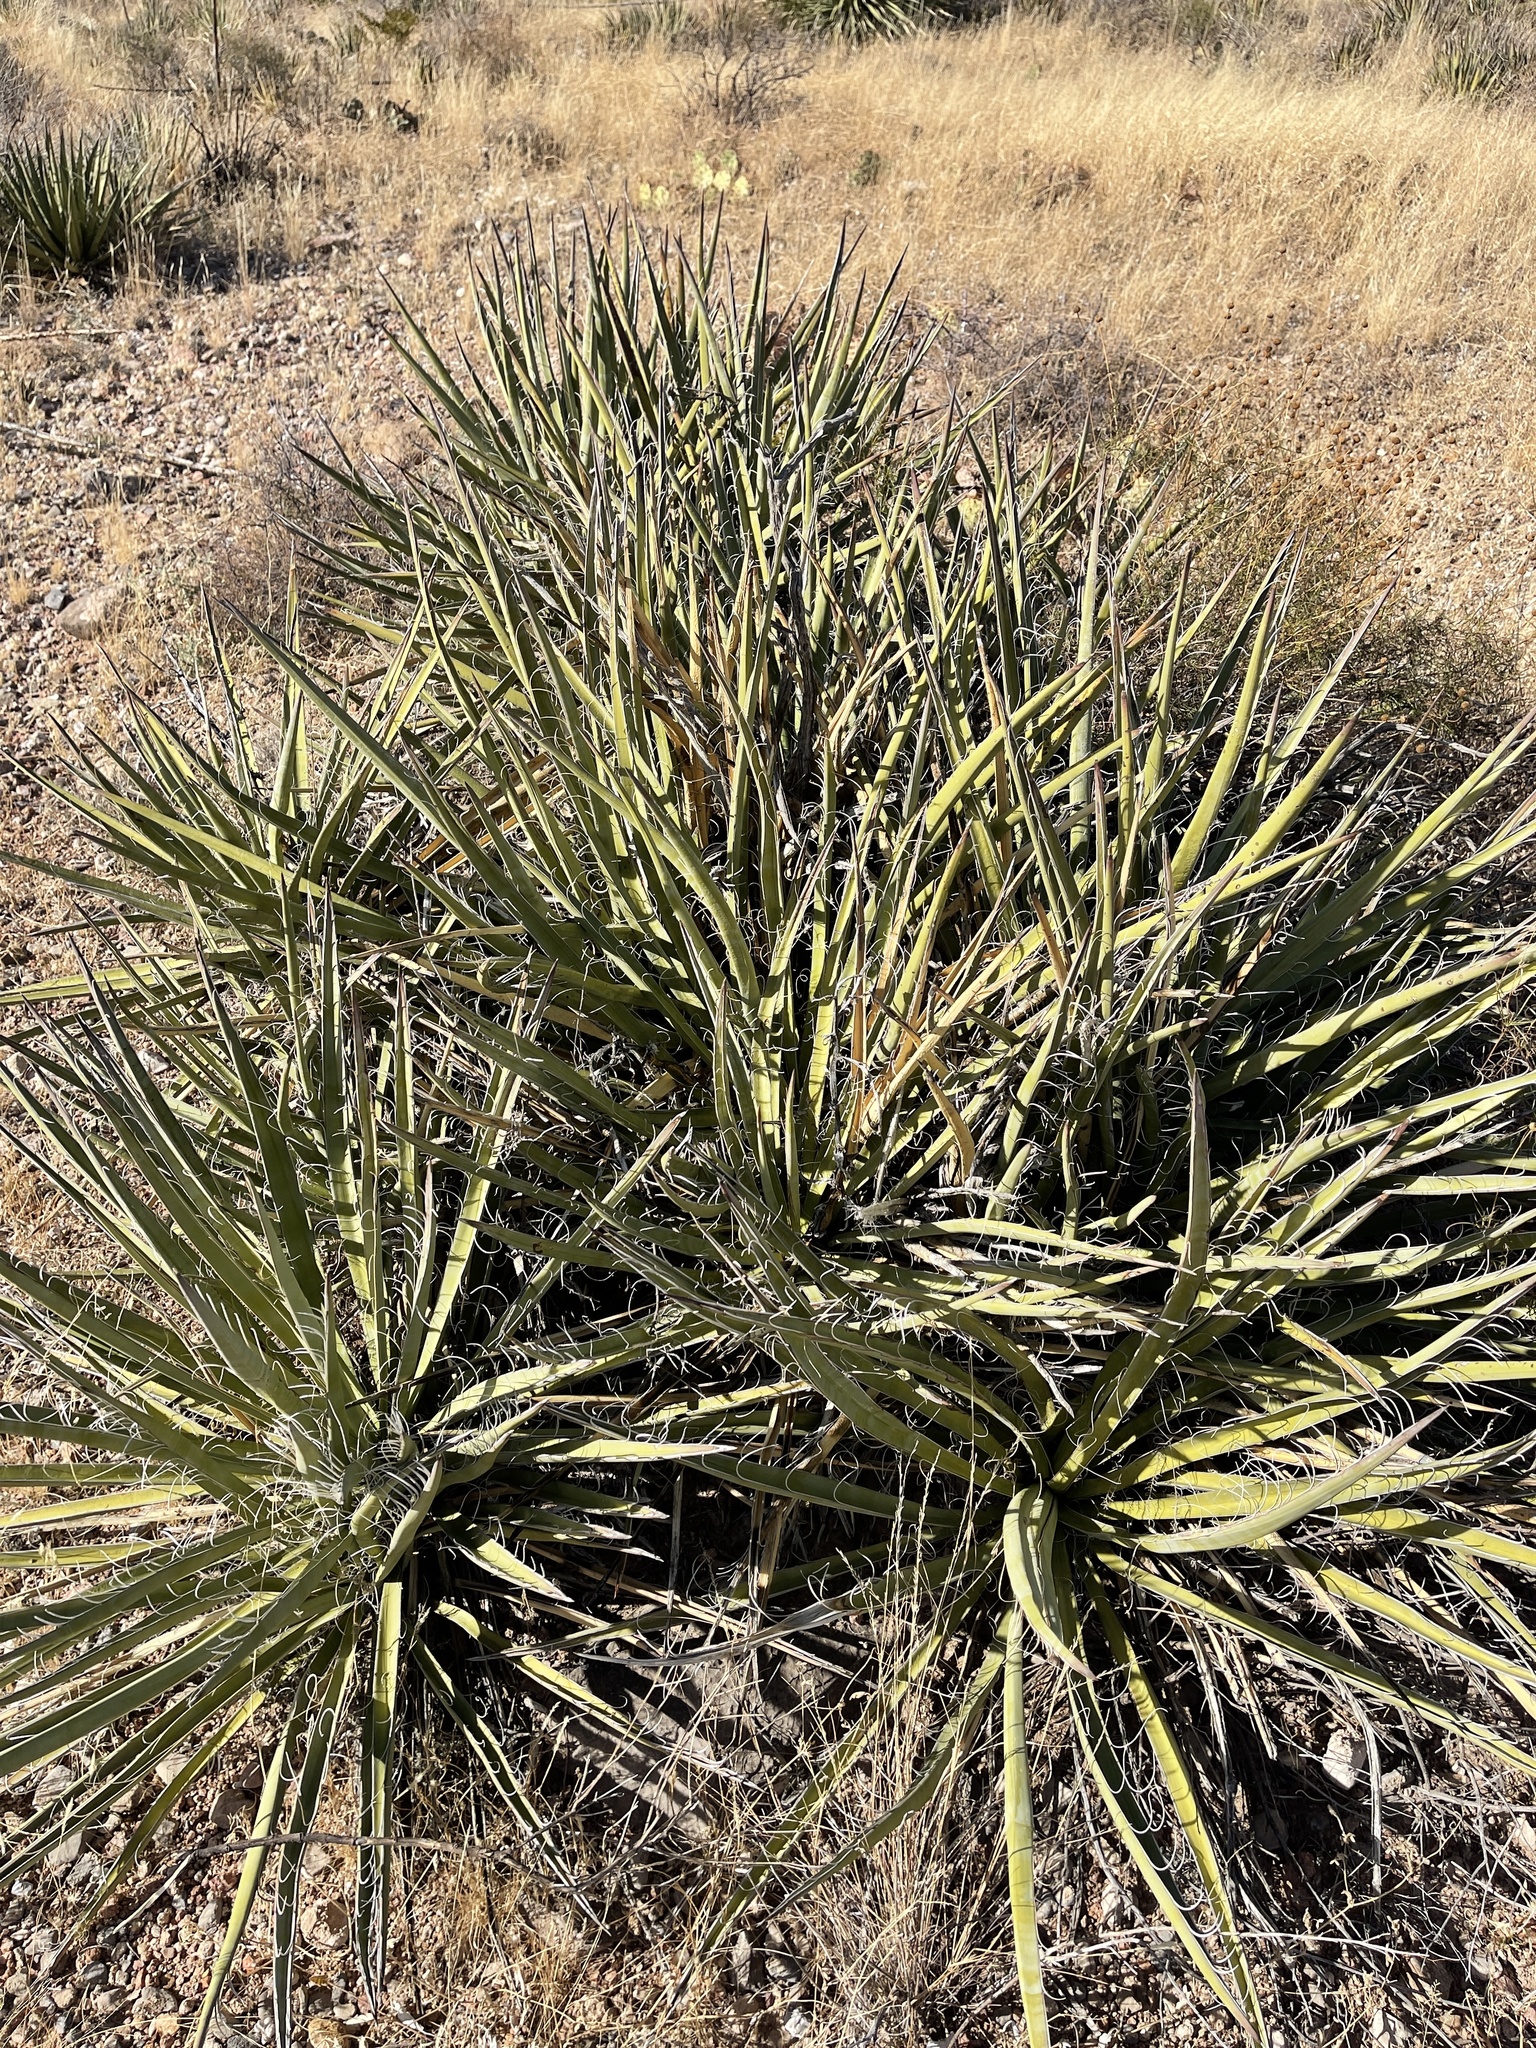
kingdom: Plantae
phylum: Tracheophyta
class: Liliopsida
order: Asparagales
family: Asparagaceae
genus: Yucca
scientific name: Yucca baccata
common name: Banana yucca
